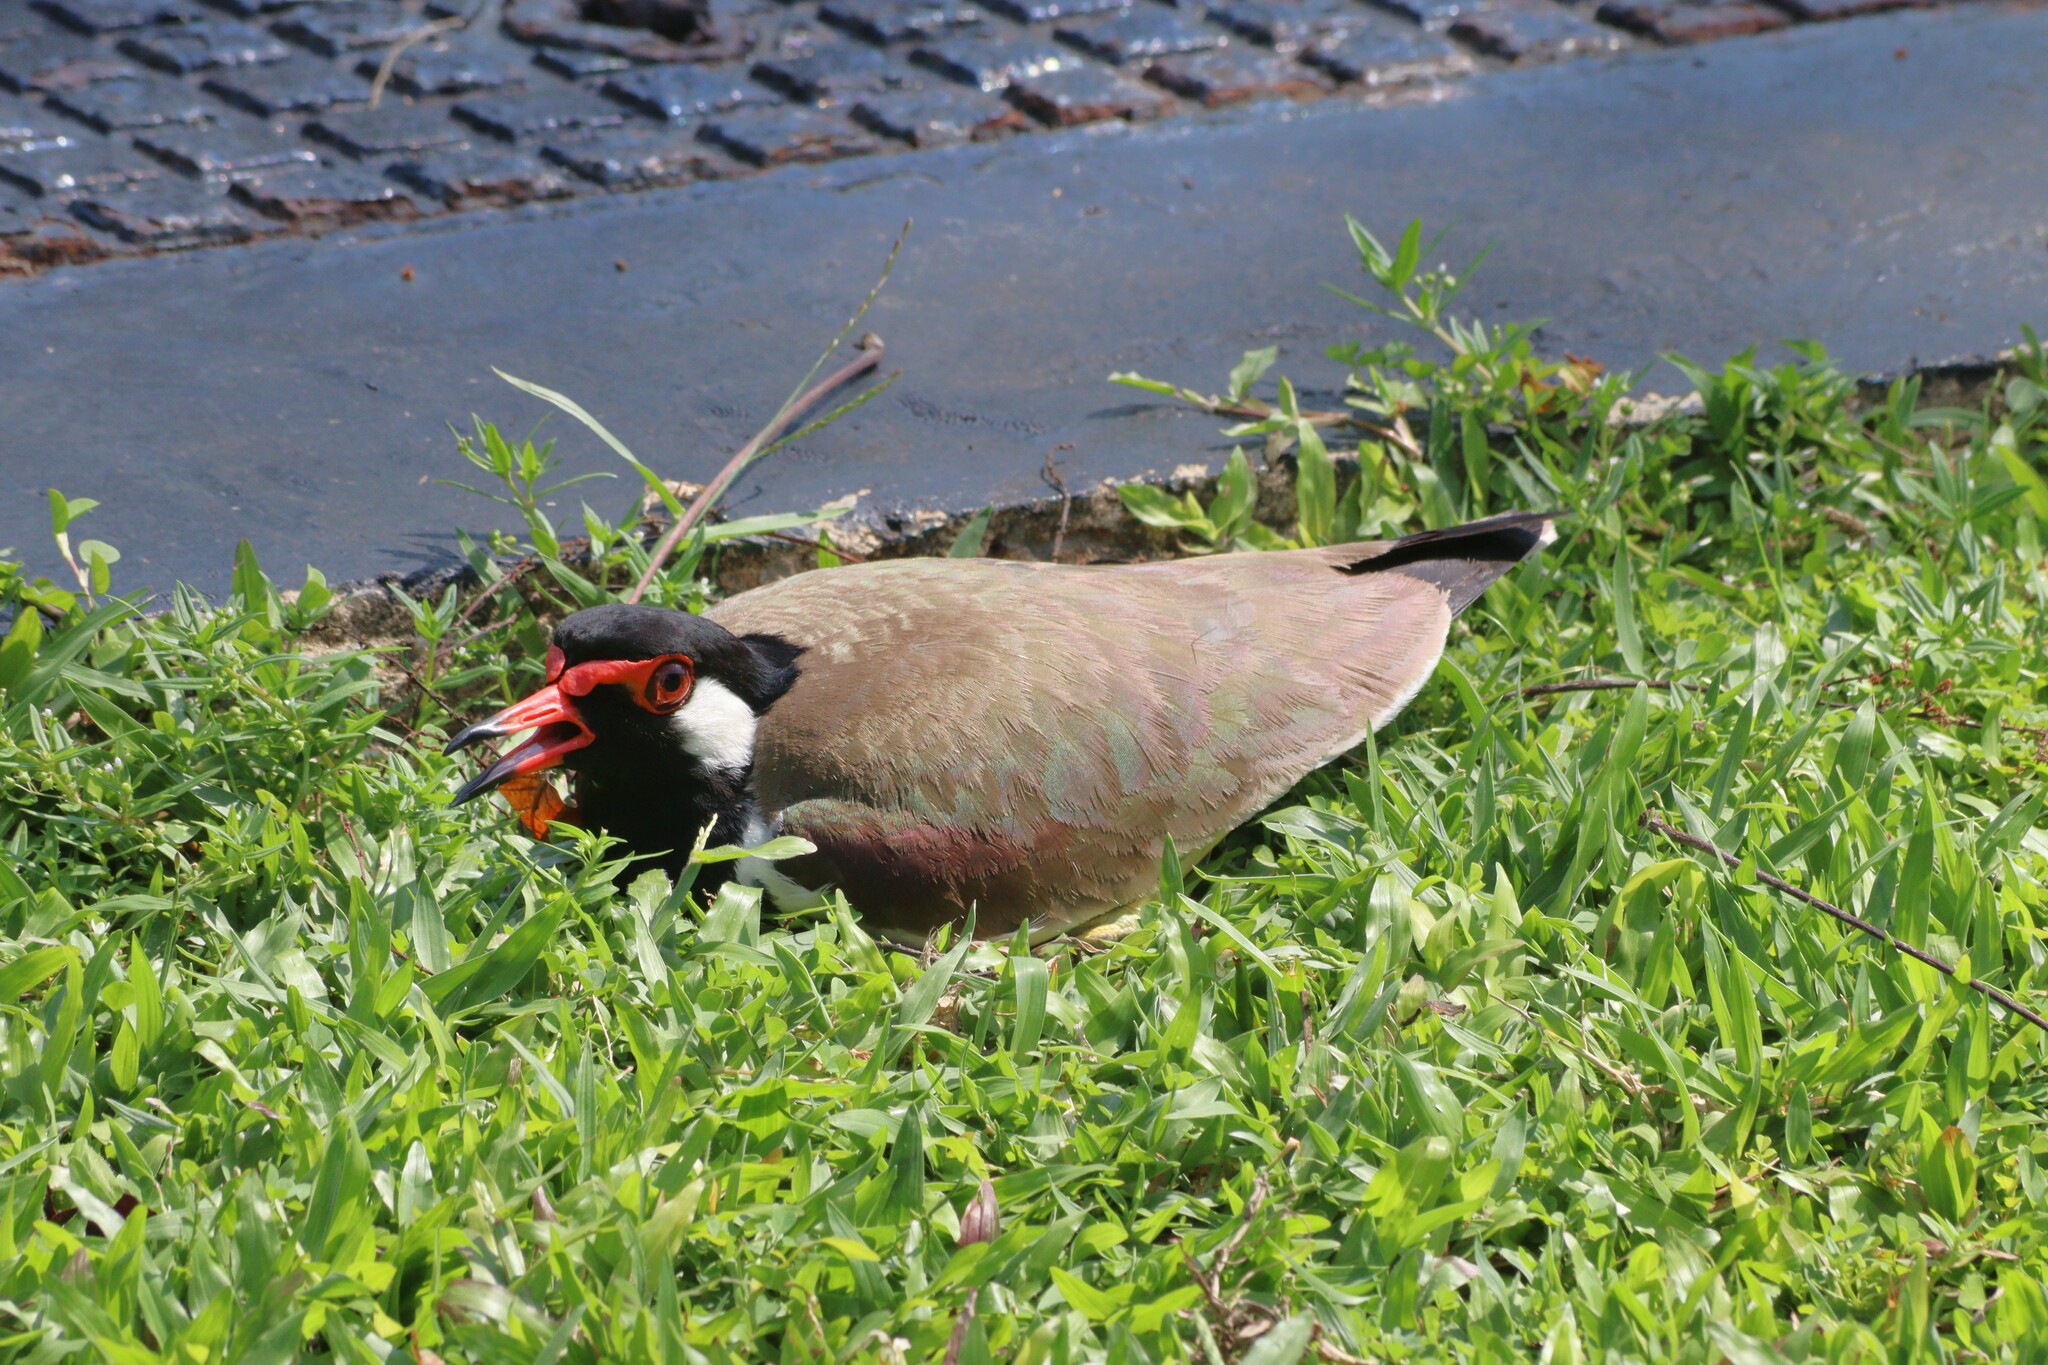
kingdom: Animalia
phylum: Chordata
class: Aves
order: Charadriiformes
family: Charadriidae
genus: Vanellus
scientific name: Vanellus indicus
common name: Red-wattled lapwing
